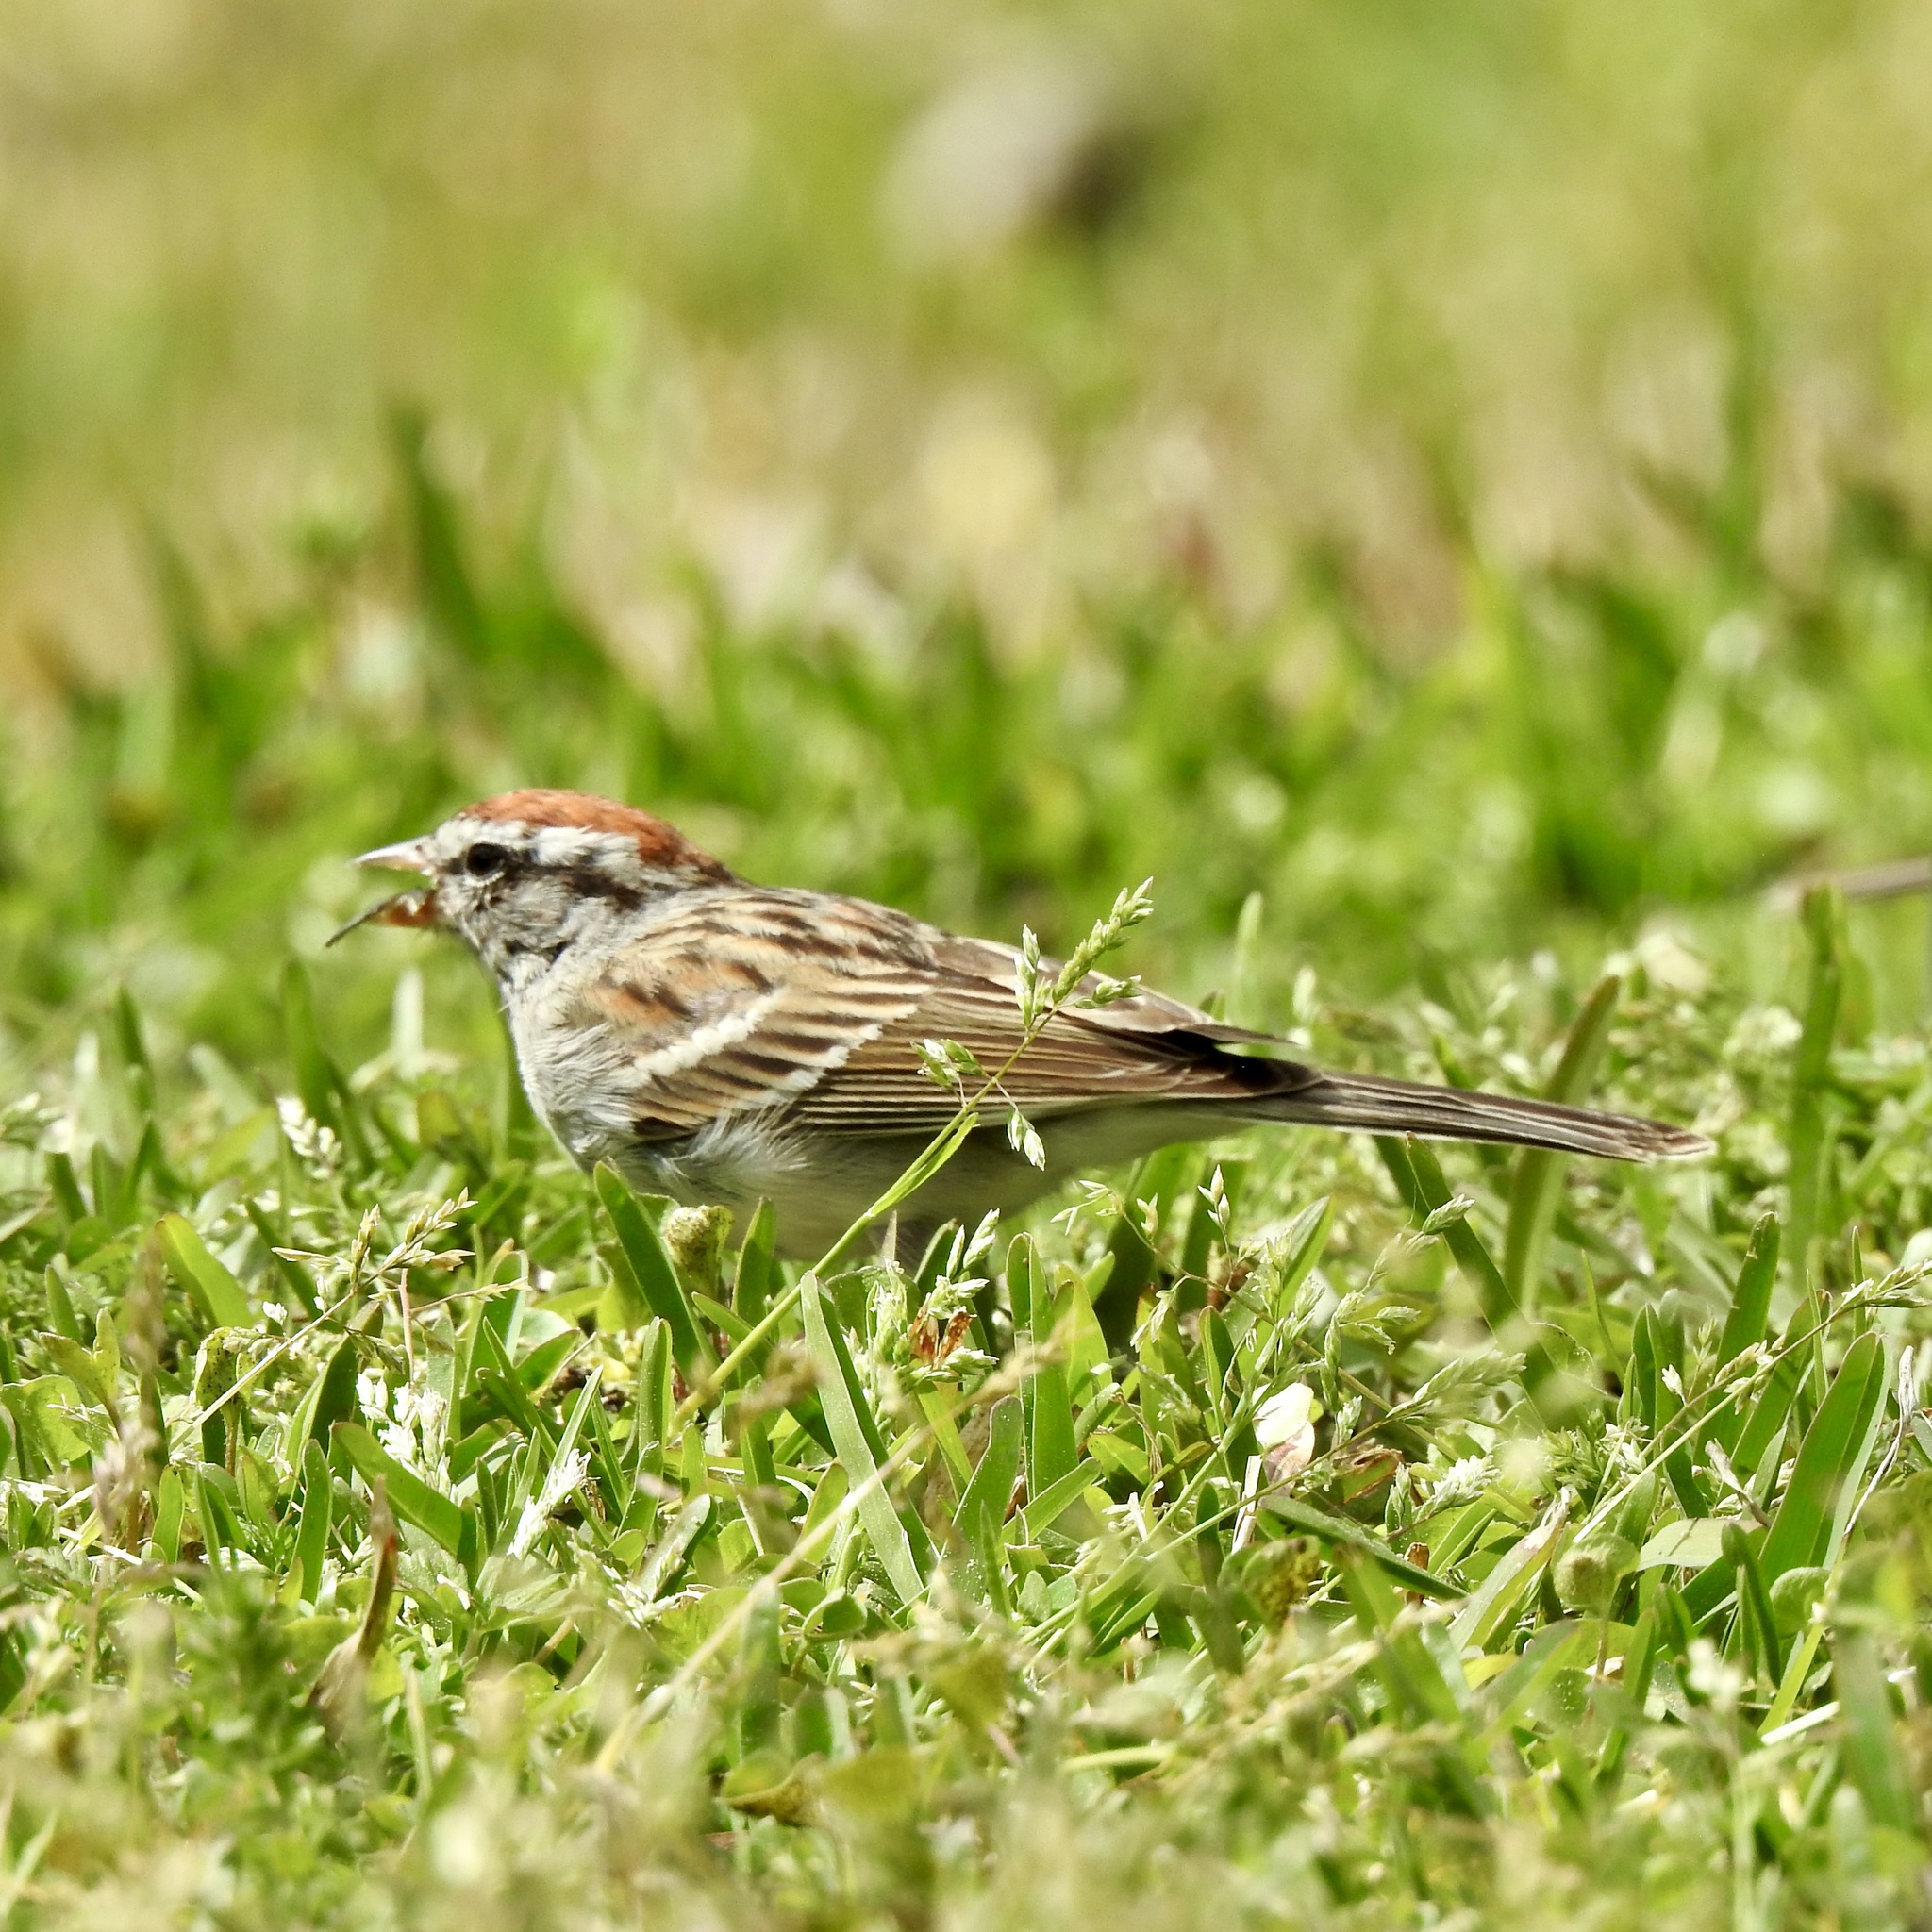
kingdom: Animalia
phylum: Chordata
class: Aves
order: Passeriformes
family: Passerellidae
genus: Spizella
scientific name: Spizella passerina
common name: Chipping sparrow
